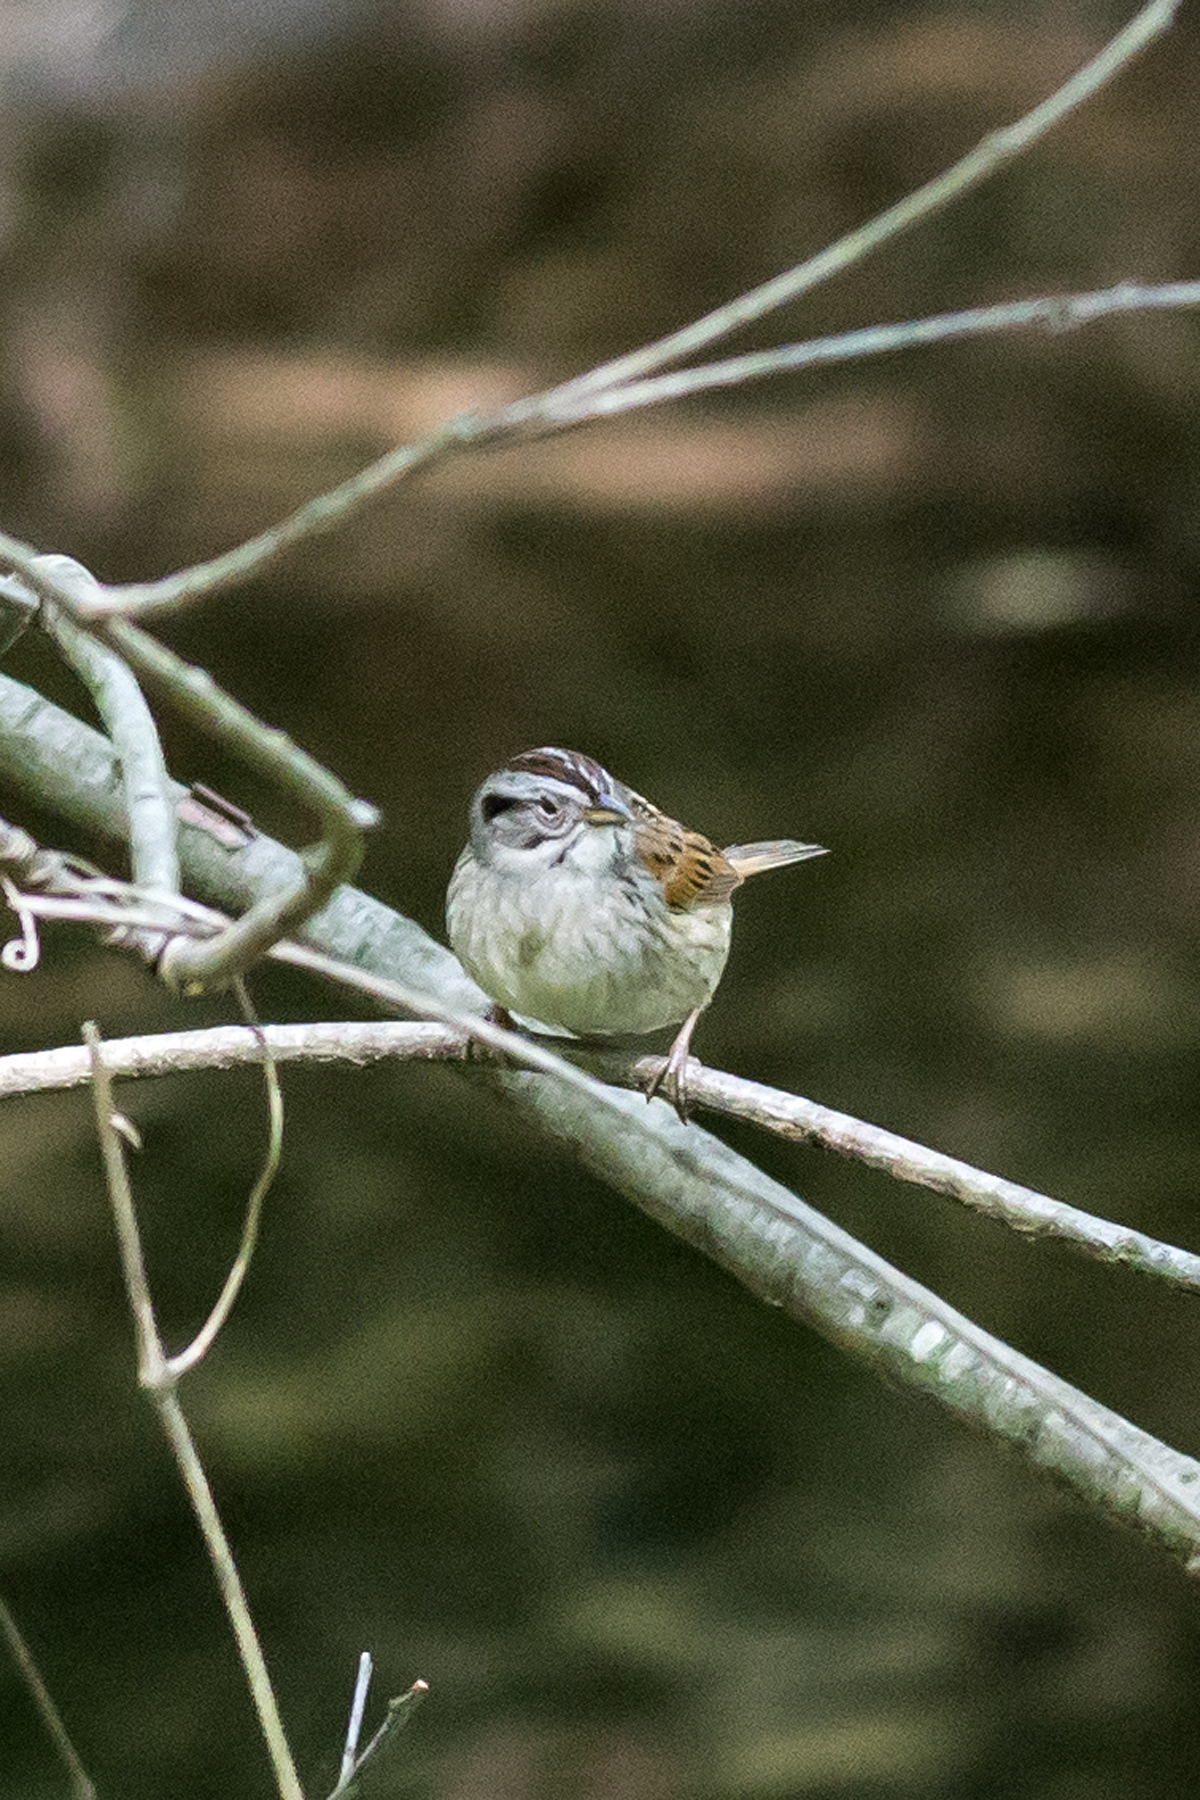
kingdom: Animalia
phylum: Chordata
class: Aves
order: Passeriformes
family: Passerellidae
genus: Melospiza
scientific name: Melospiza georgiana
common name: Swamp sparrow
